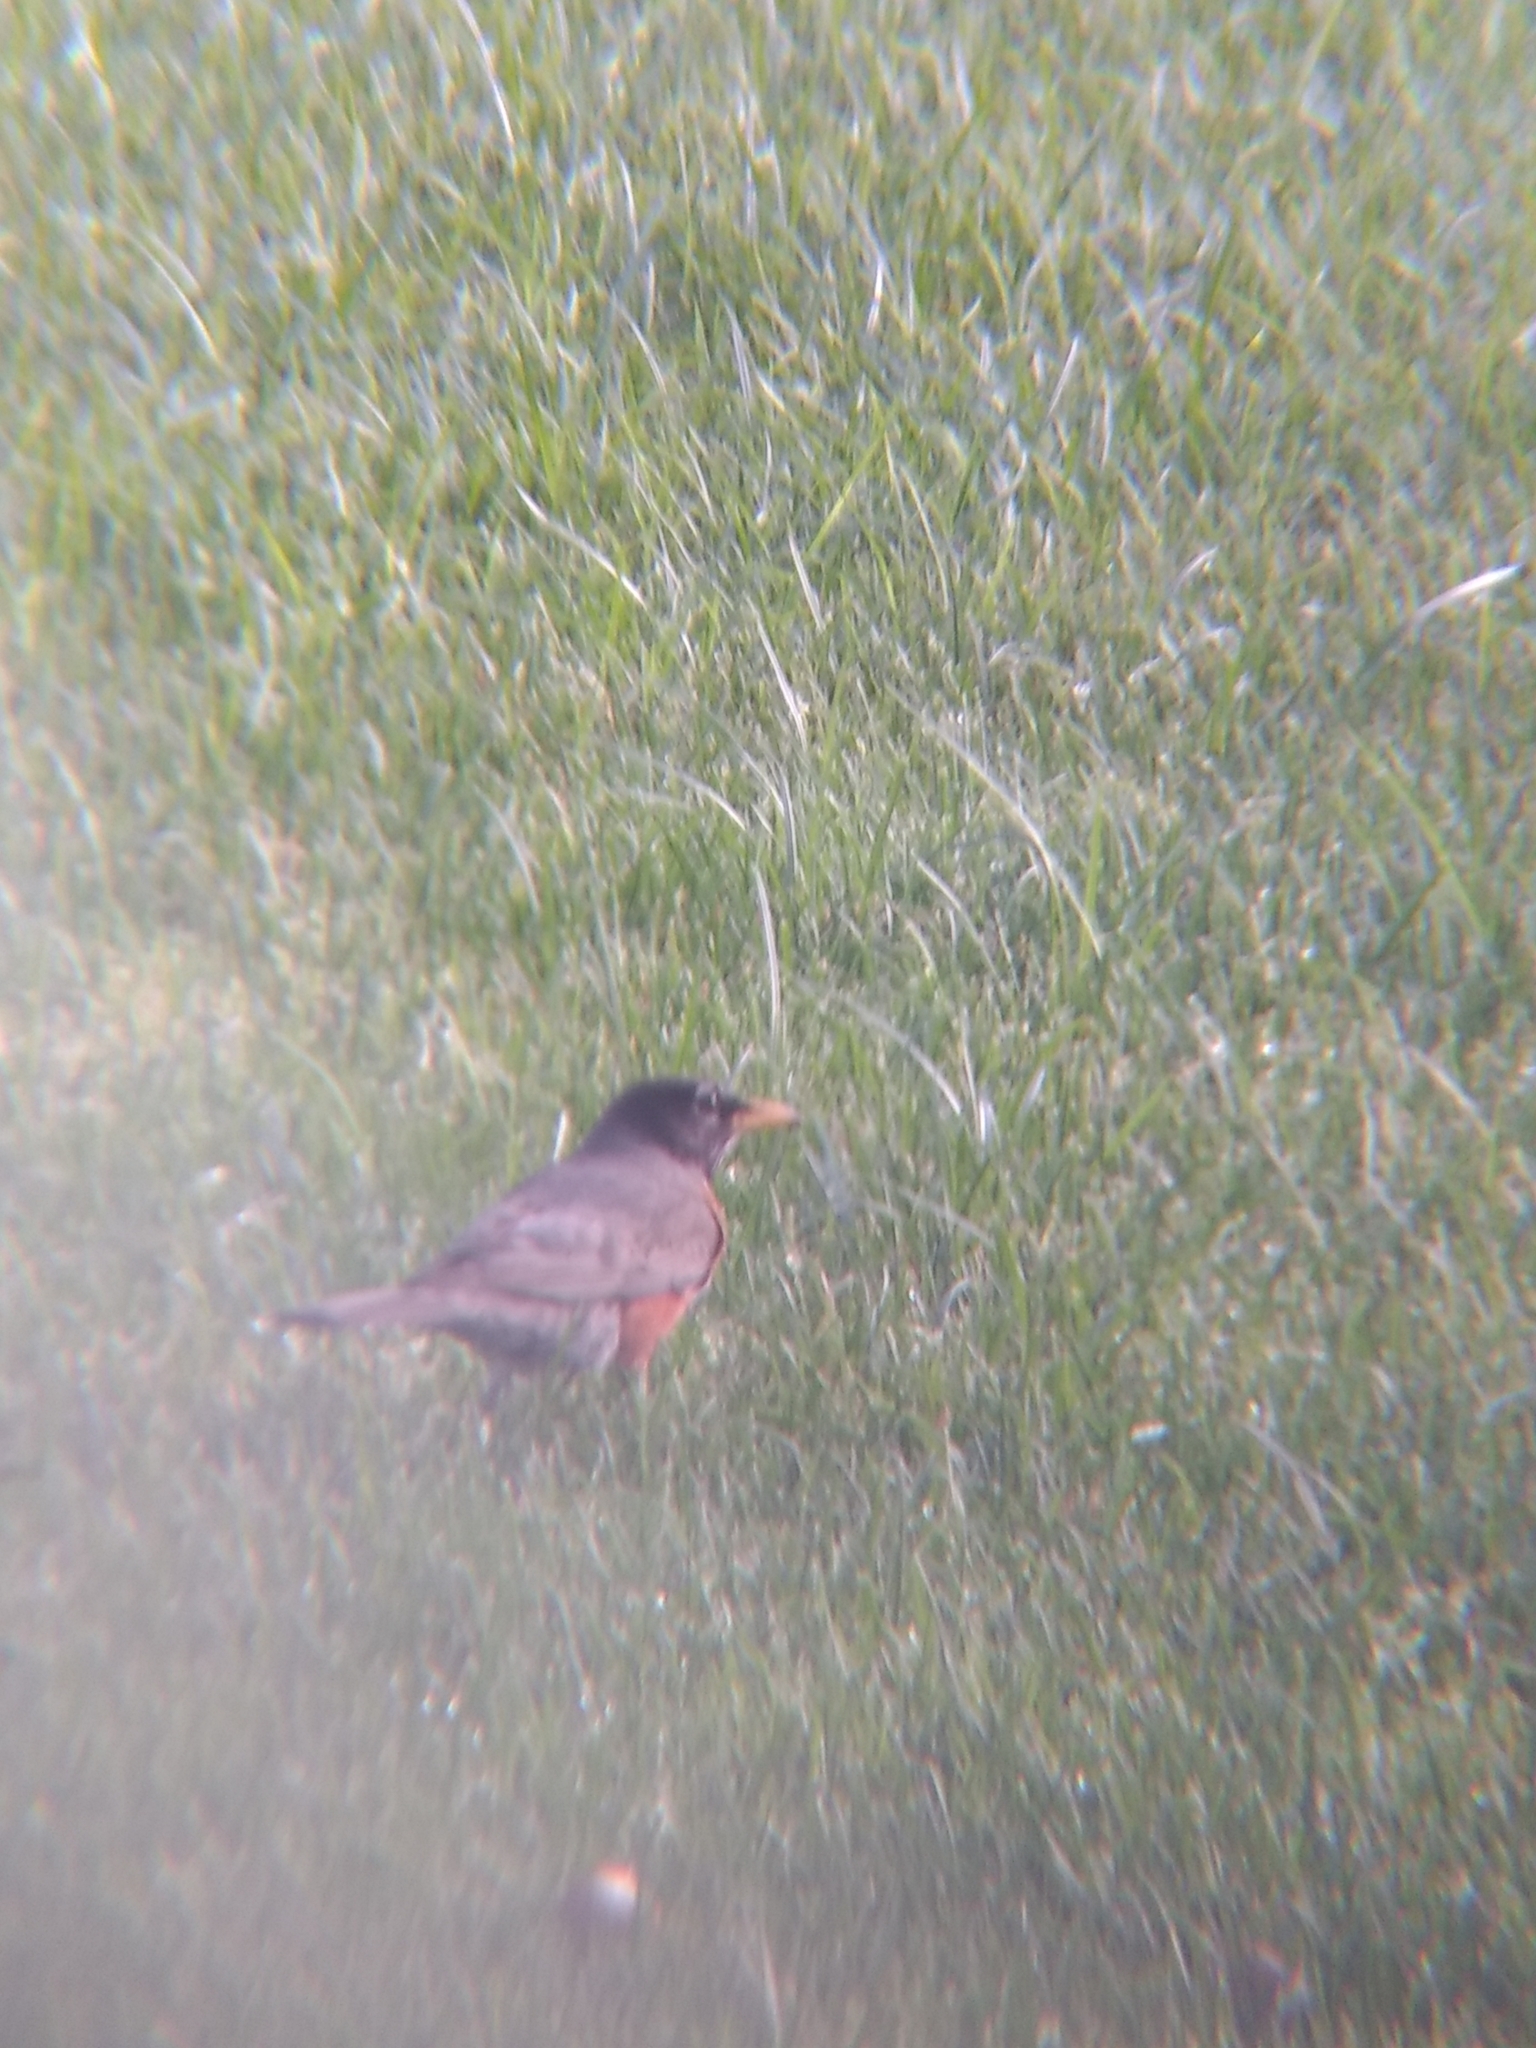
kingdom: Animalia
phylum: Chordata
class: Aves
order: Passeriformes
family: Turdidae
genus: Turdus
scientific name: Turdus migratorius
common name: American robin
